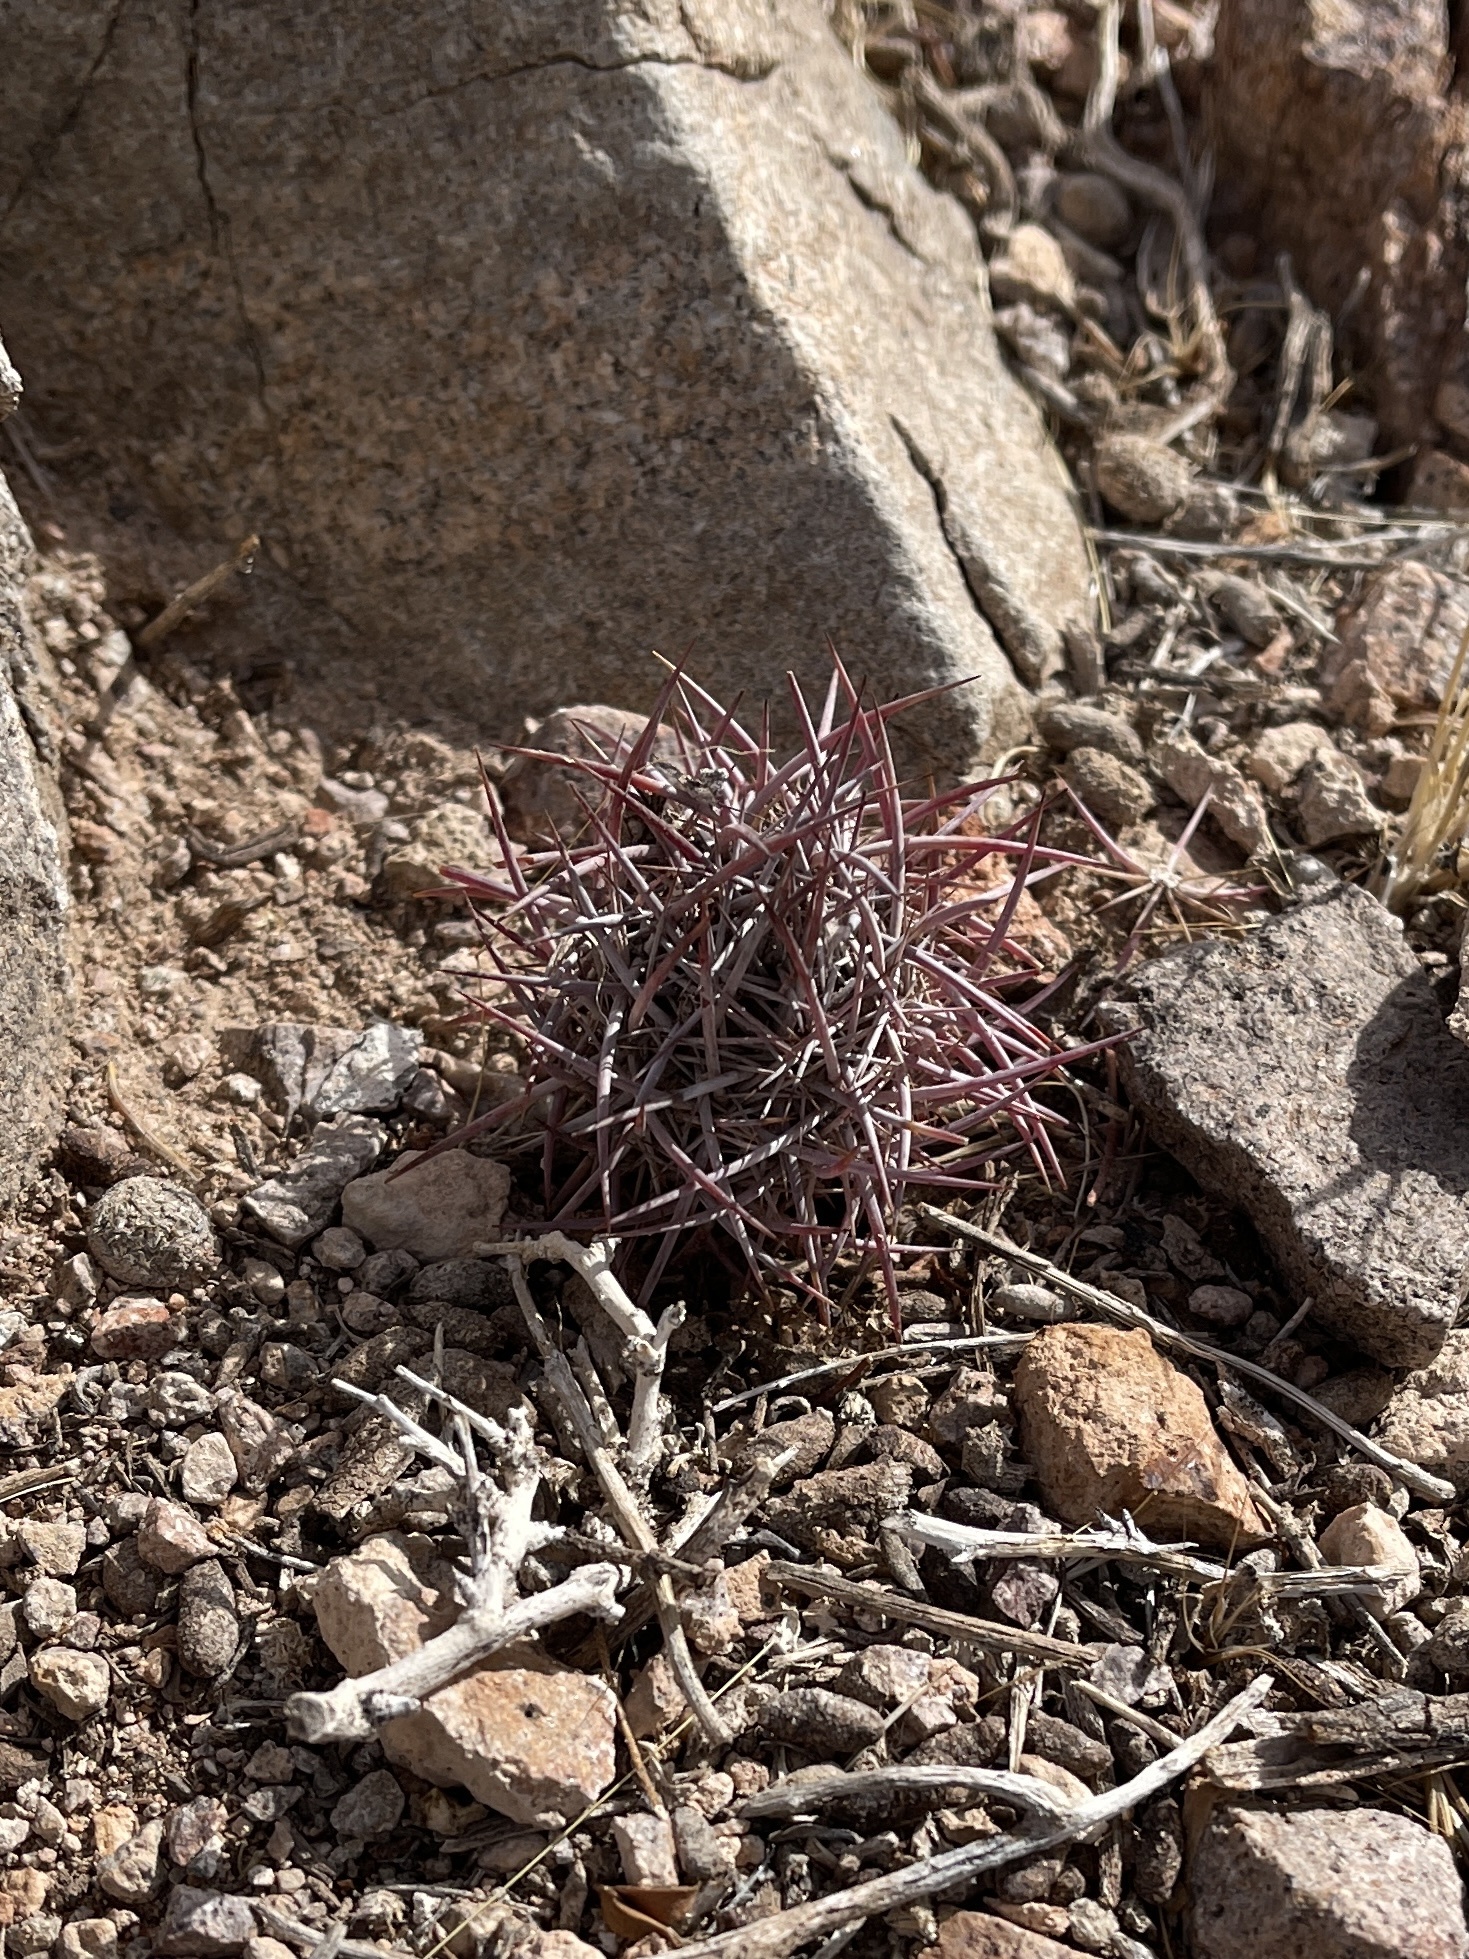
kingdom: Plantae
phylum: Tracheophyta
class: Magnoliopsida
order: Caryophyllales
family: Cactaceae
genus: Sclerocactus
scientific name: Sclerocactus johnsonii
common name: Eight-spine fishhook cactus
